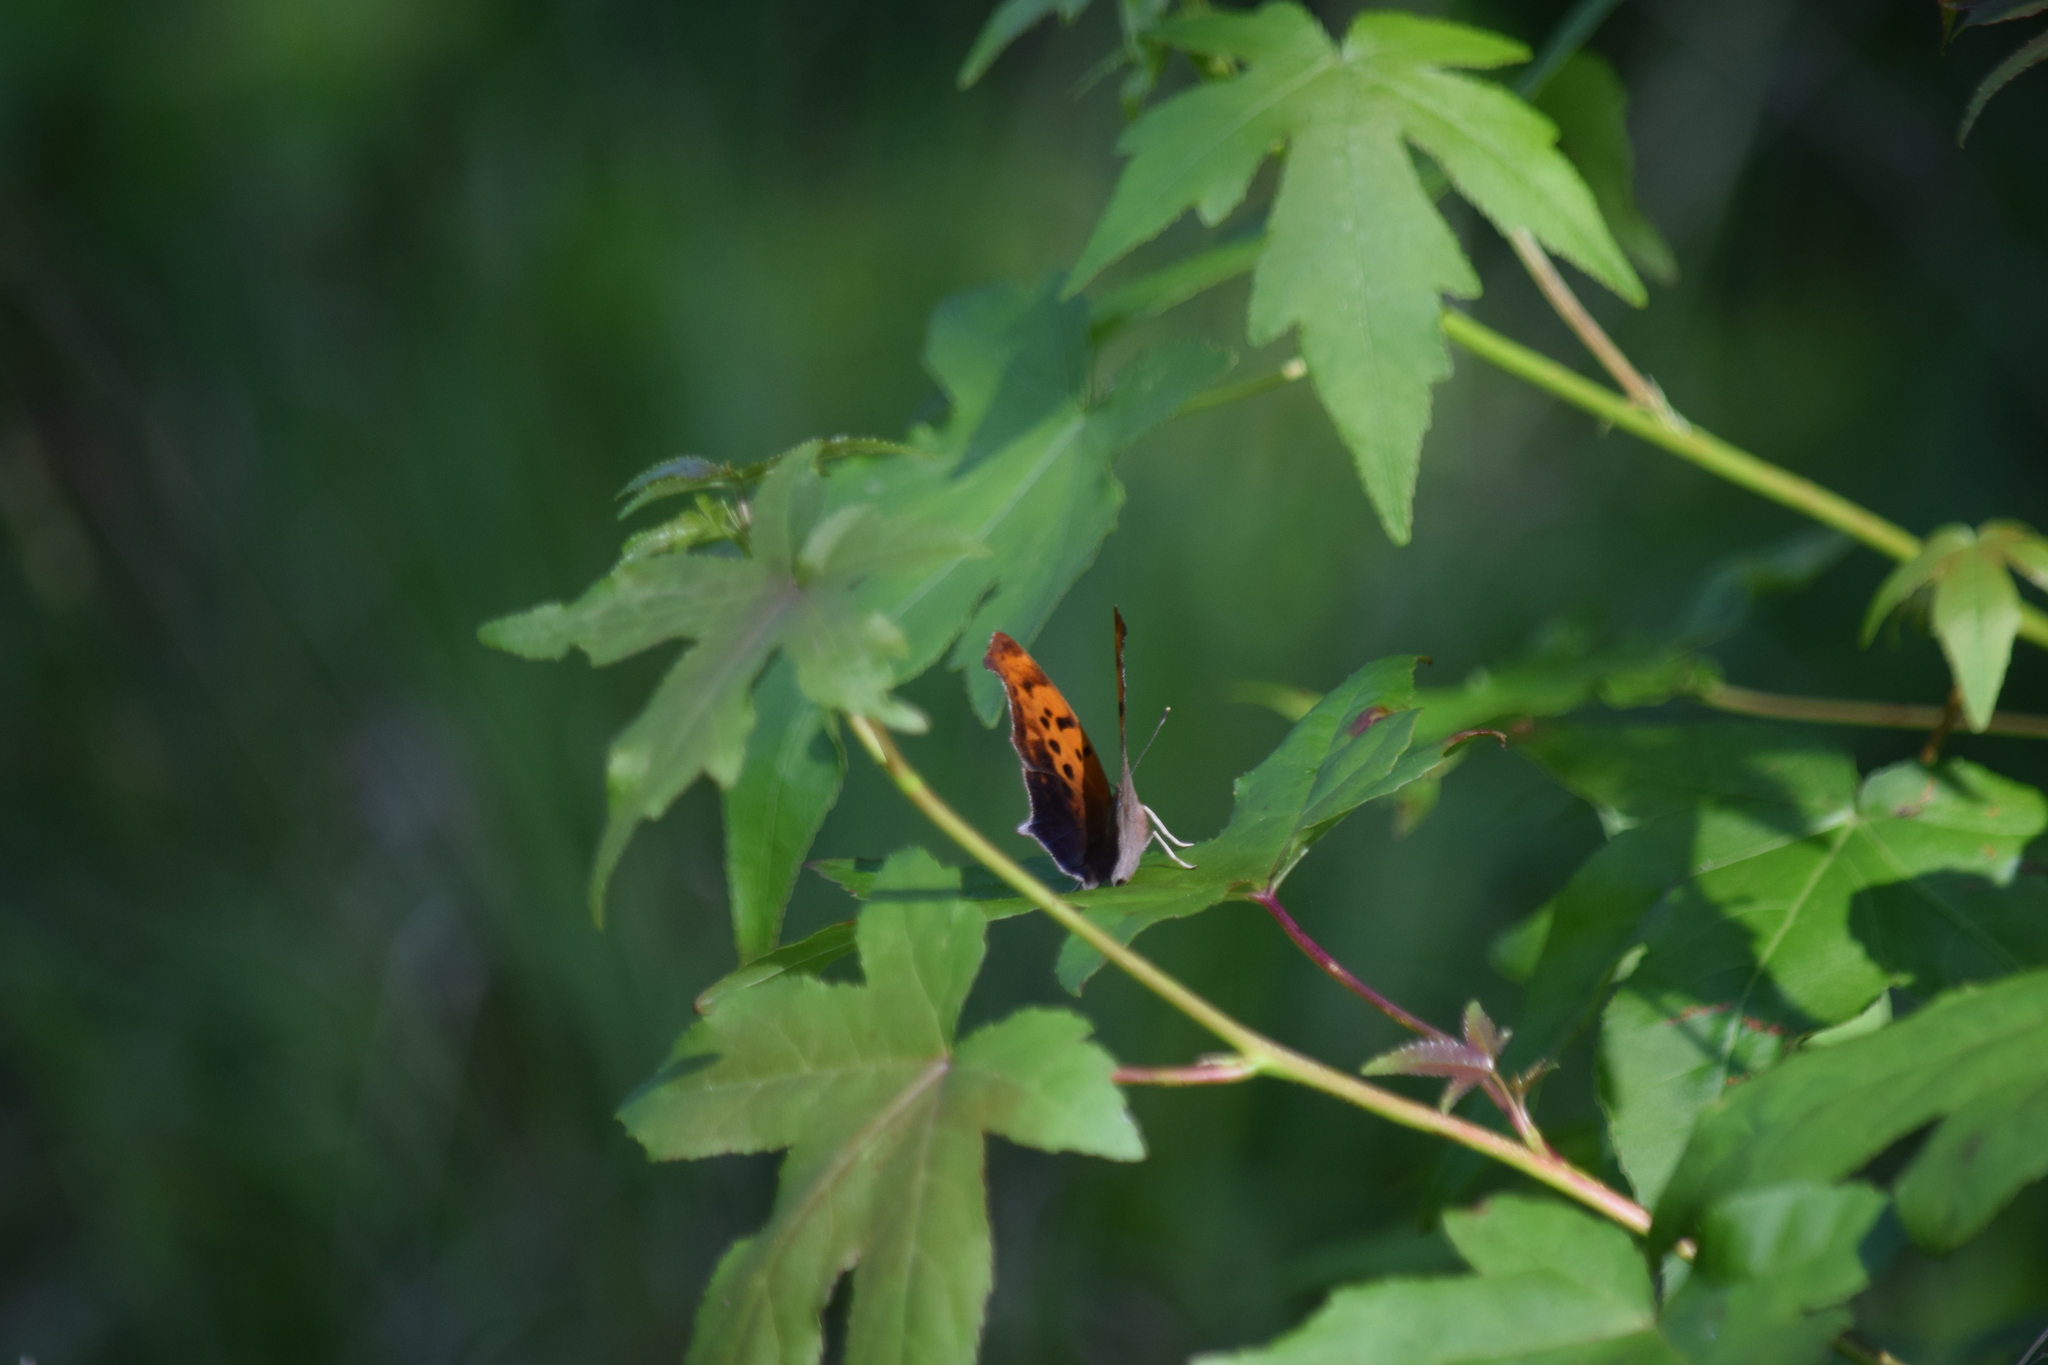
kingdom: Animalia
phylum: Arthropoda
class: Insecta
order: Lepidoptera
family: Nymphalidae
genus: Polygonia
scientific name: Polygonia interrogationis
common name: Question mark
